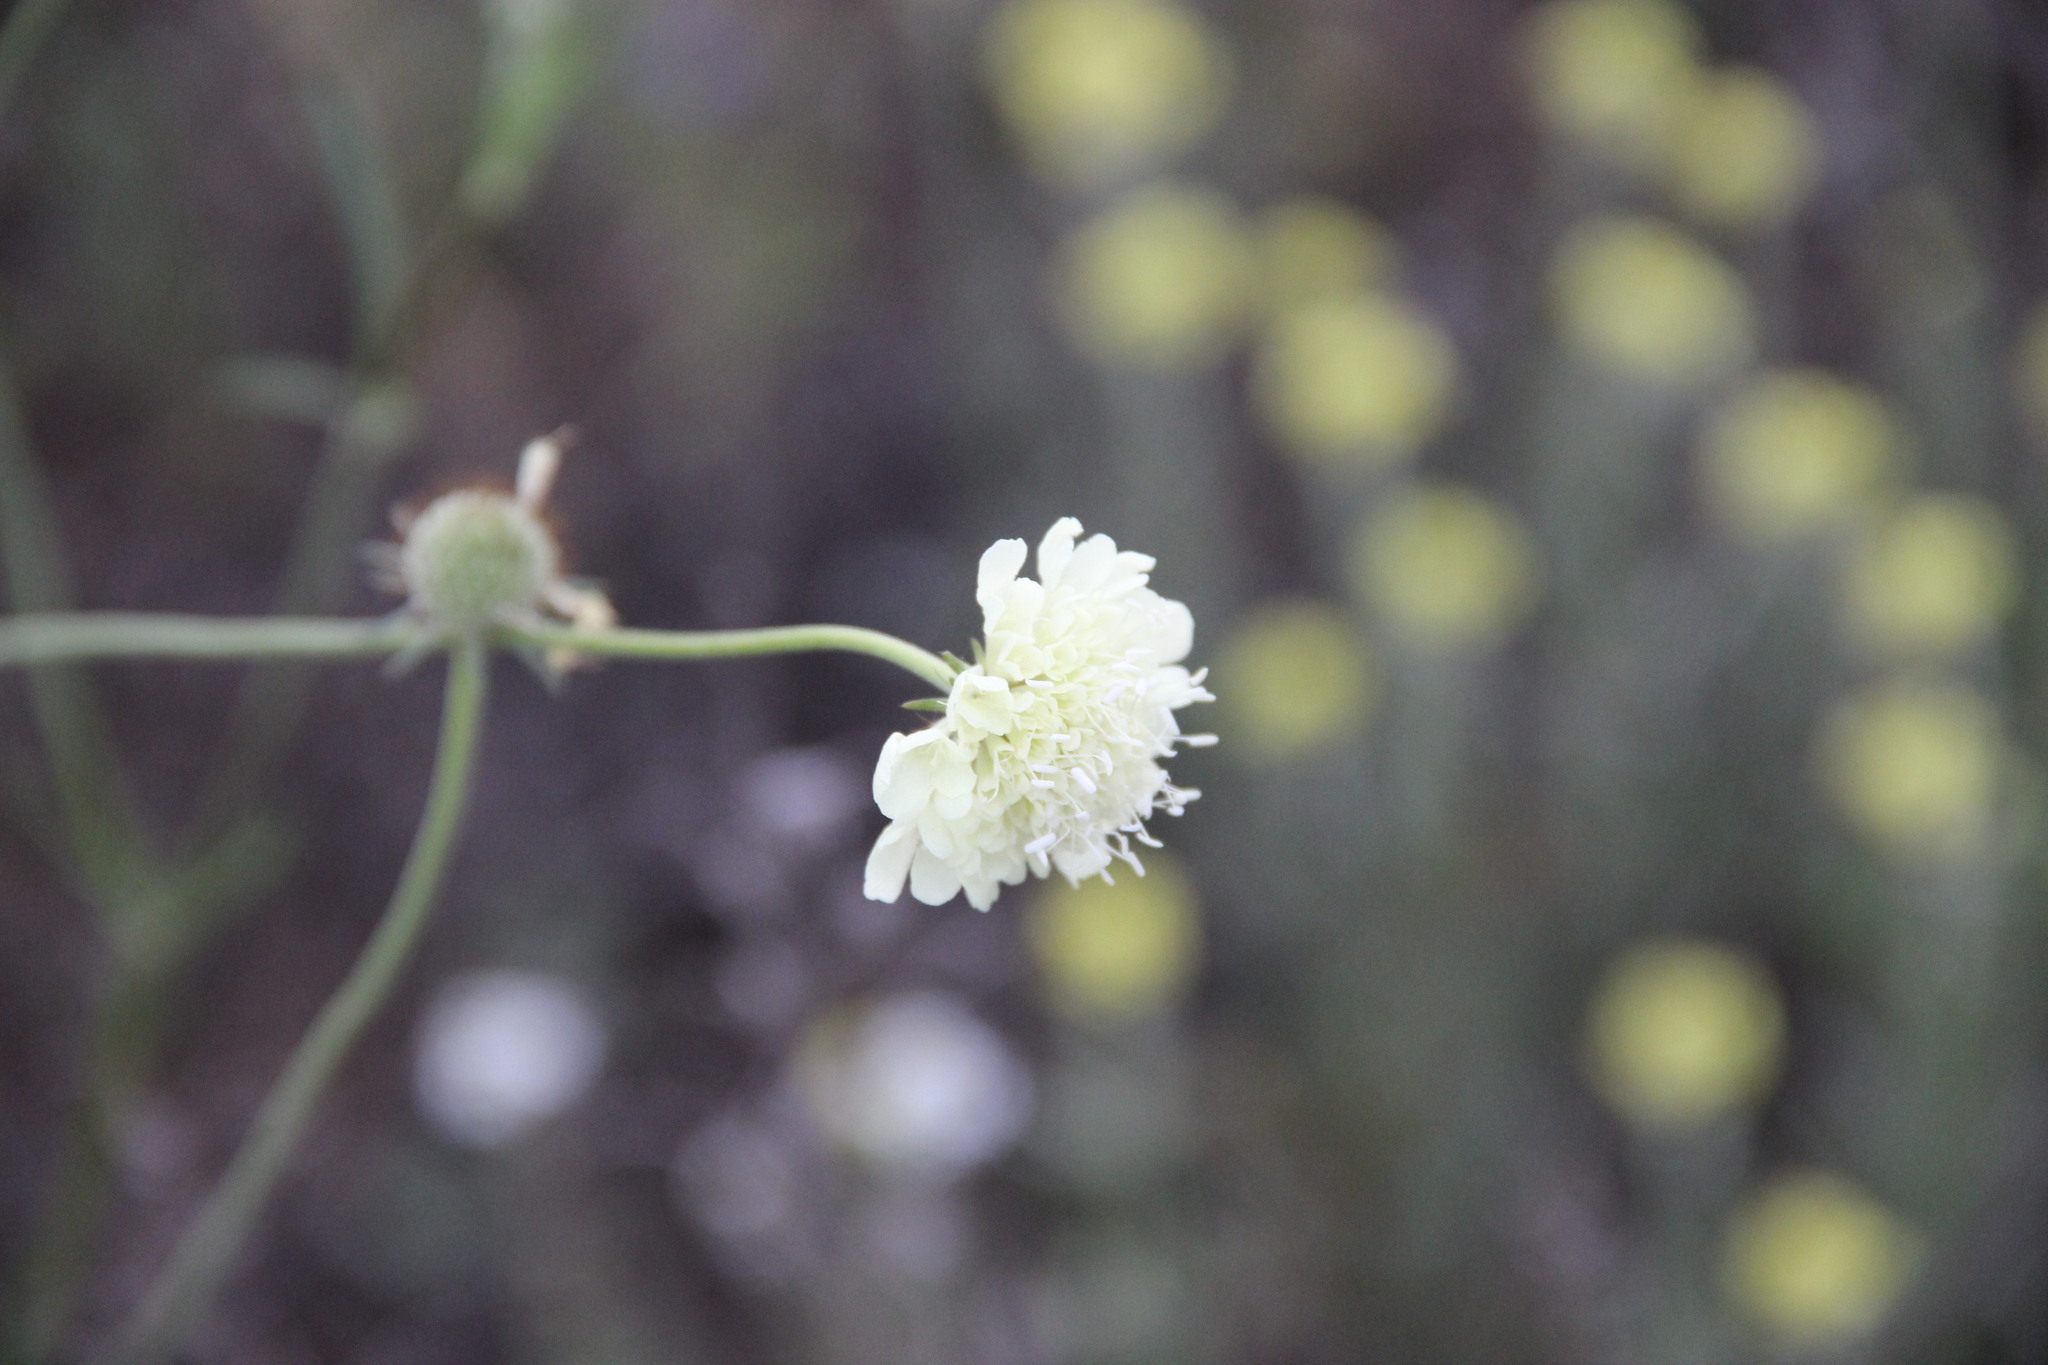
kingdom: Plantae
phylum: Tracheophyta
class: Magnoliopsida
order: Dipsacales
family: Caprifoliaceae
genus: Scabiosa
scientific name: Scabiosa ochroleuca
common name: Cream pincushions
